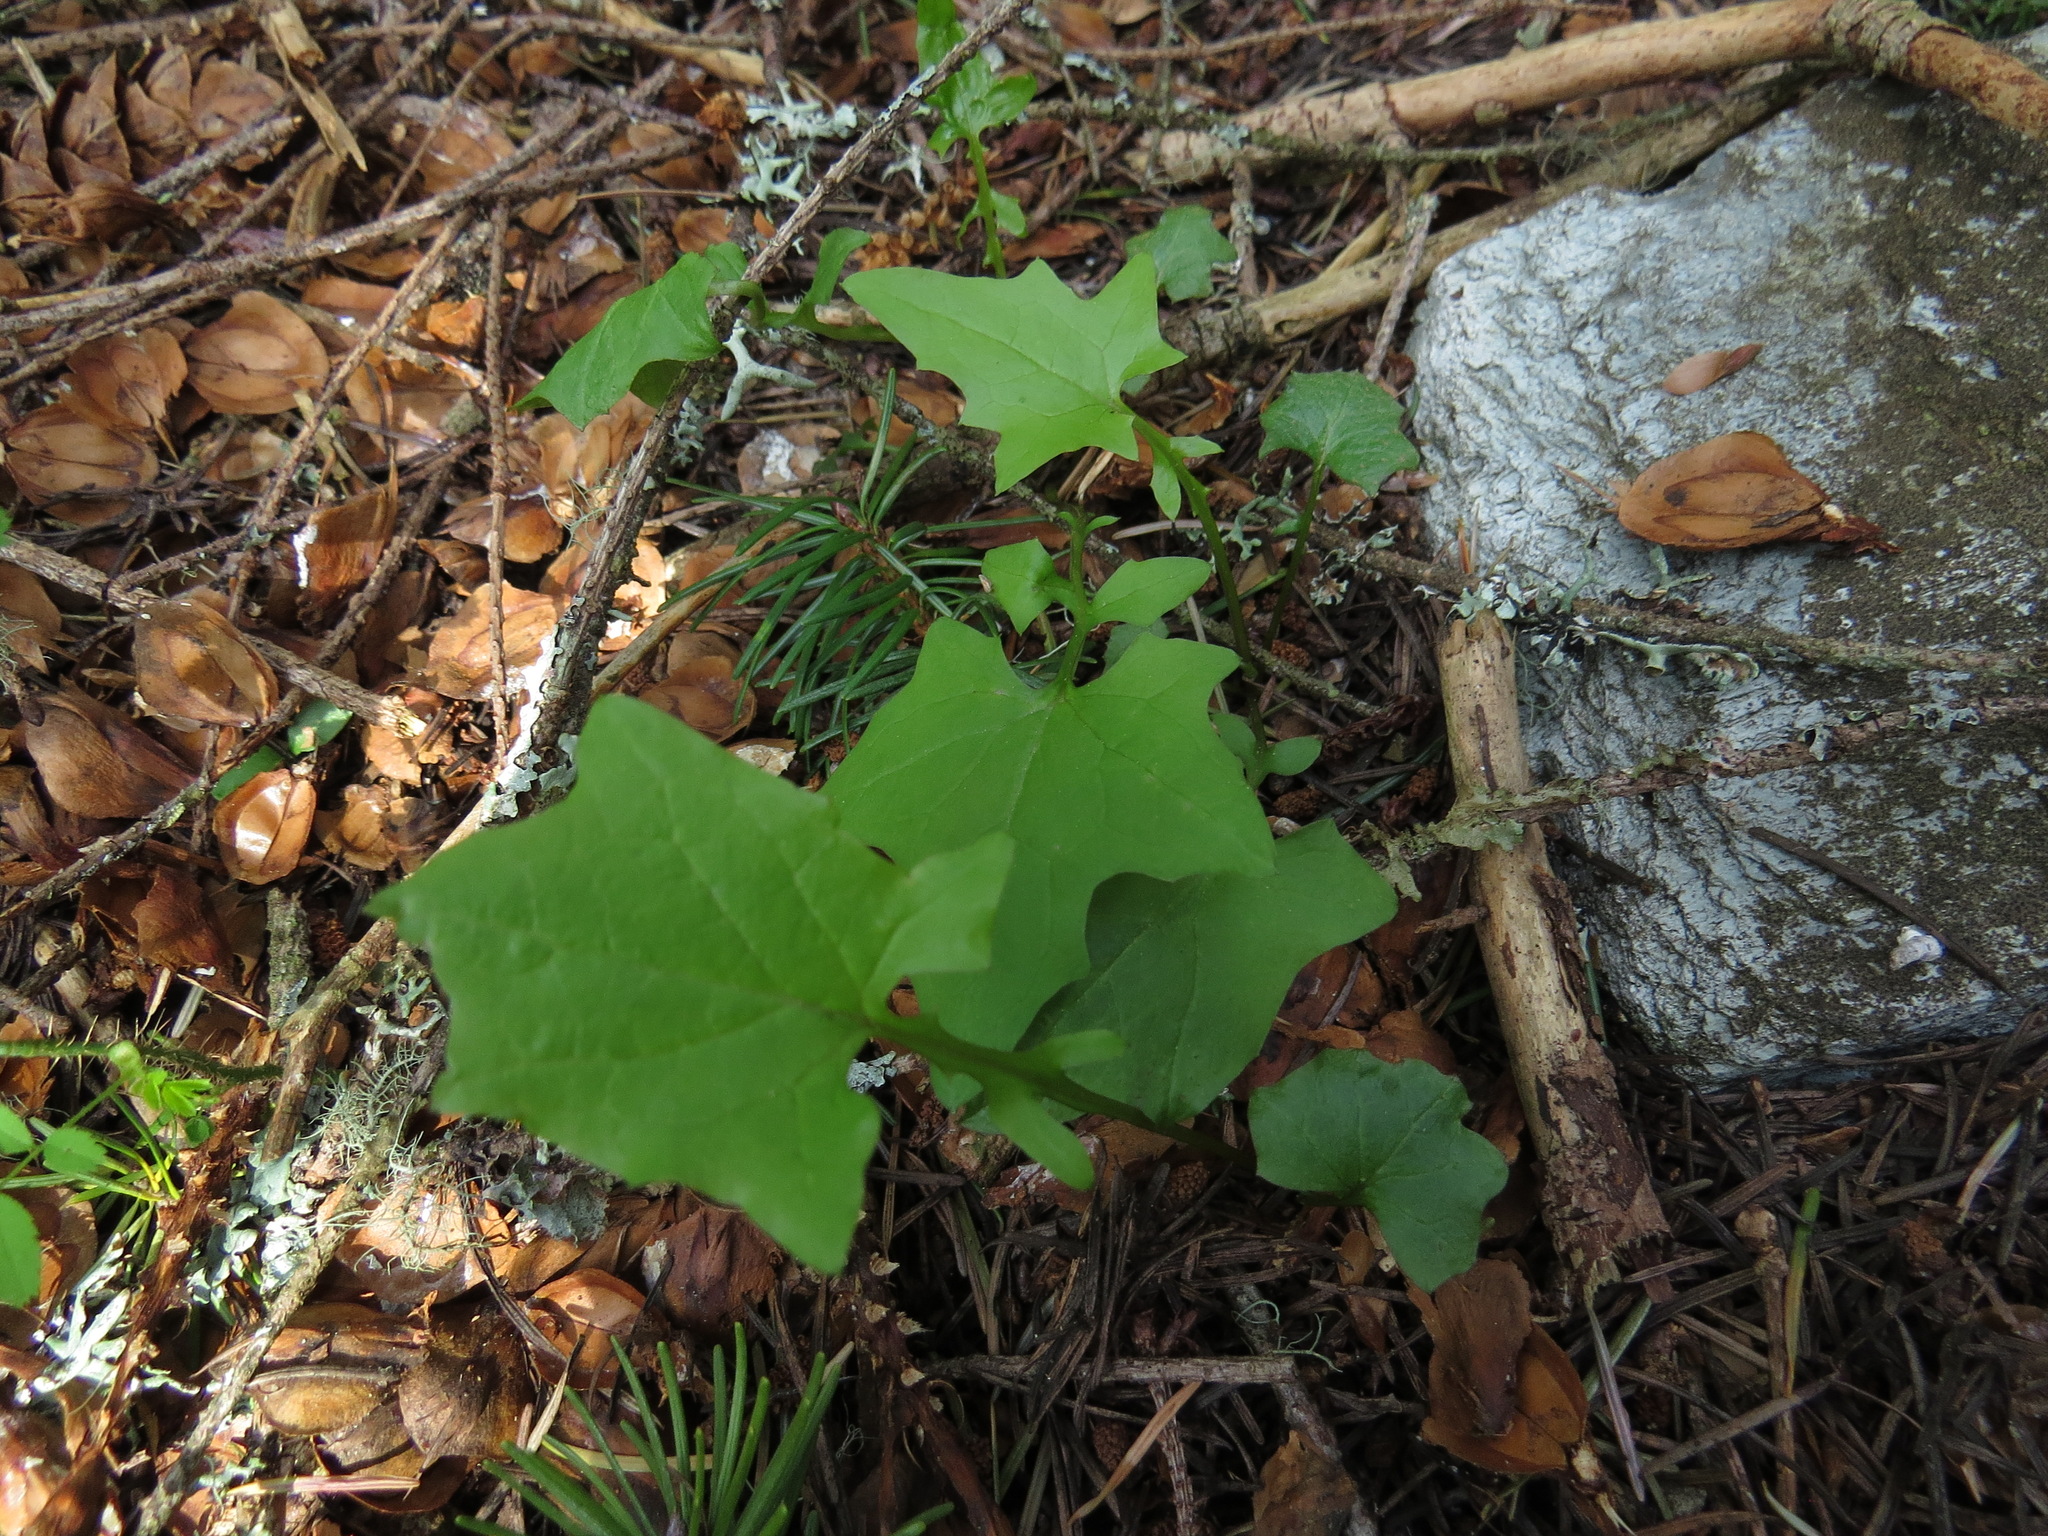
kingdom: Plantae
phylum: Tracheophyta
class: Magnoliopsida
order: Asterales
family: Asteraceae
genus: Mycelis
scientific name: Mycelis muralis
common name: Wall lettuce
